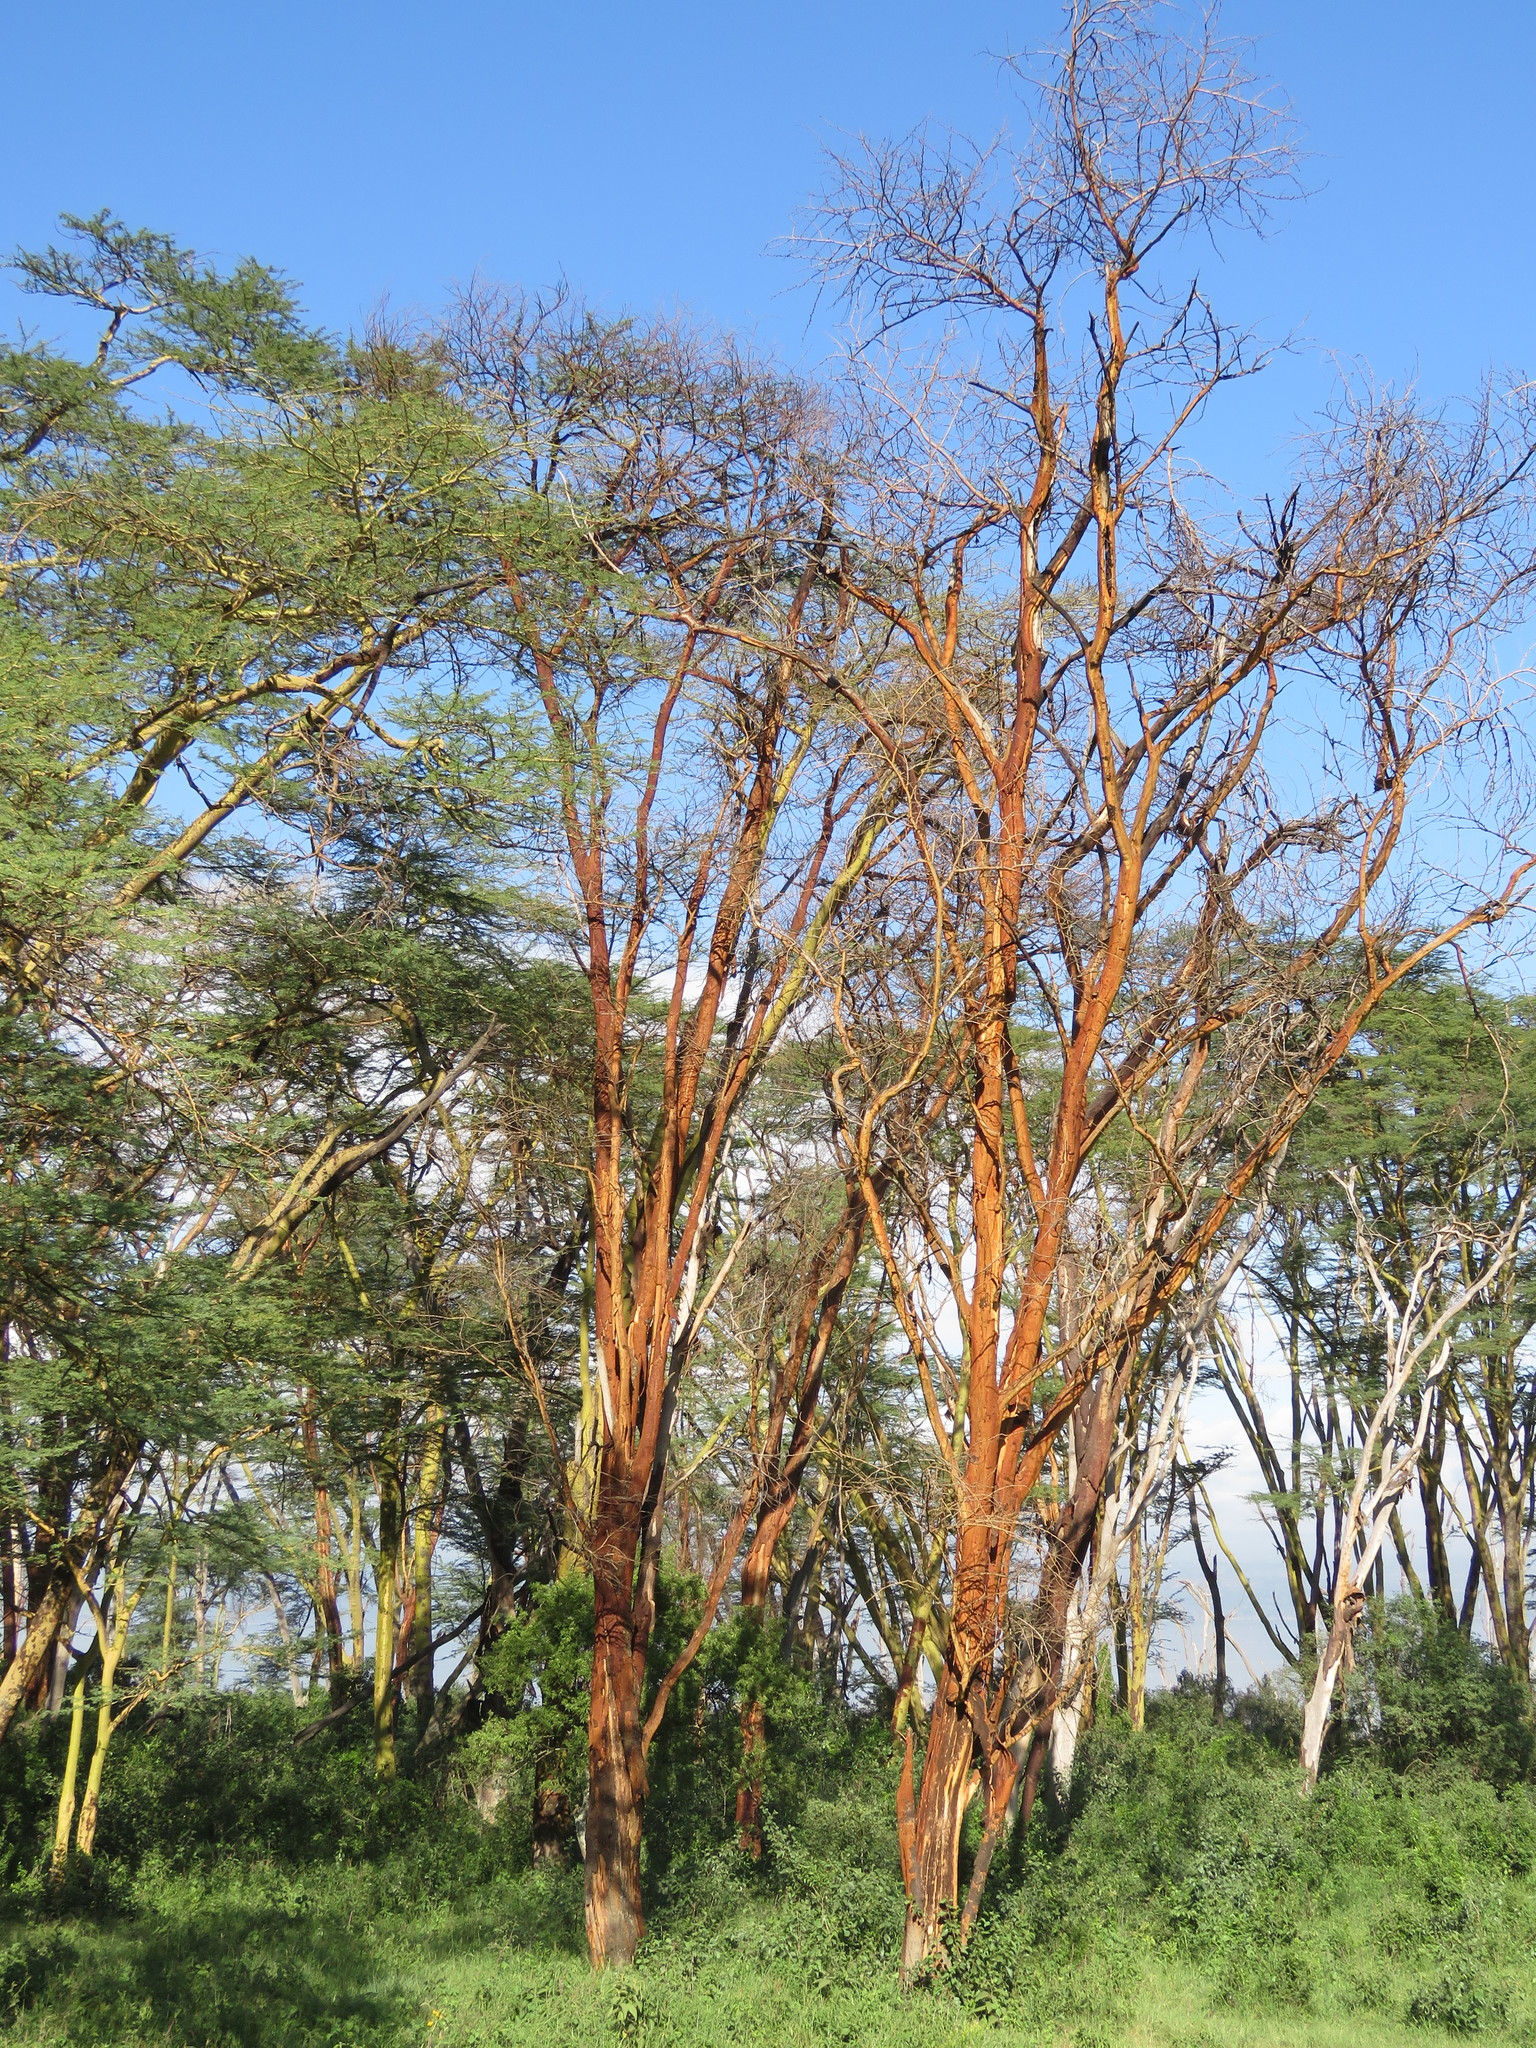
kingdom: Plantae
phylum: Tracheophyta
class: Magnoliopsida
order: Fabales
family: Fabaceae
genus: Vachellia
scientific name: Vachellia xanthophloea
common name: Fever tree
